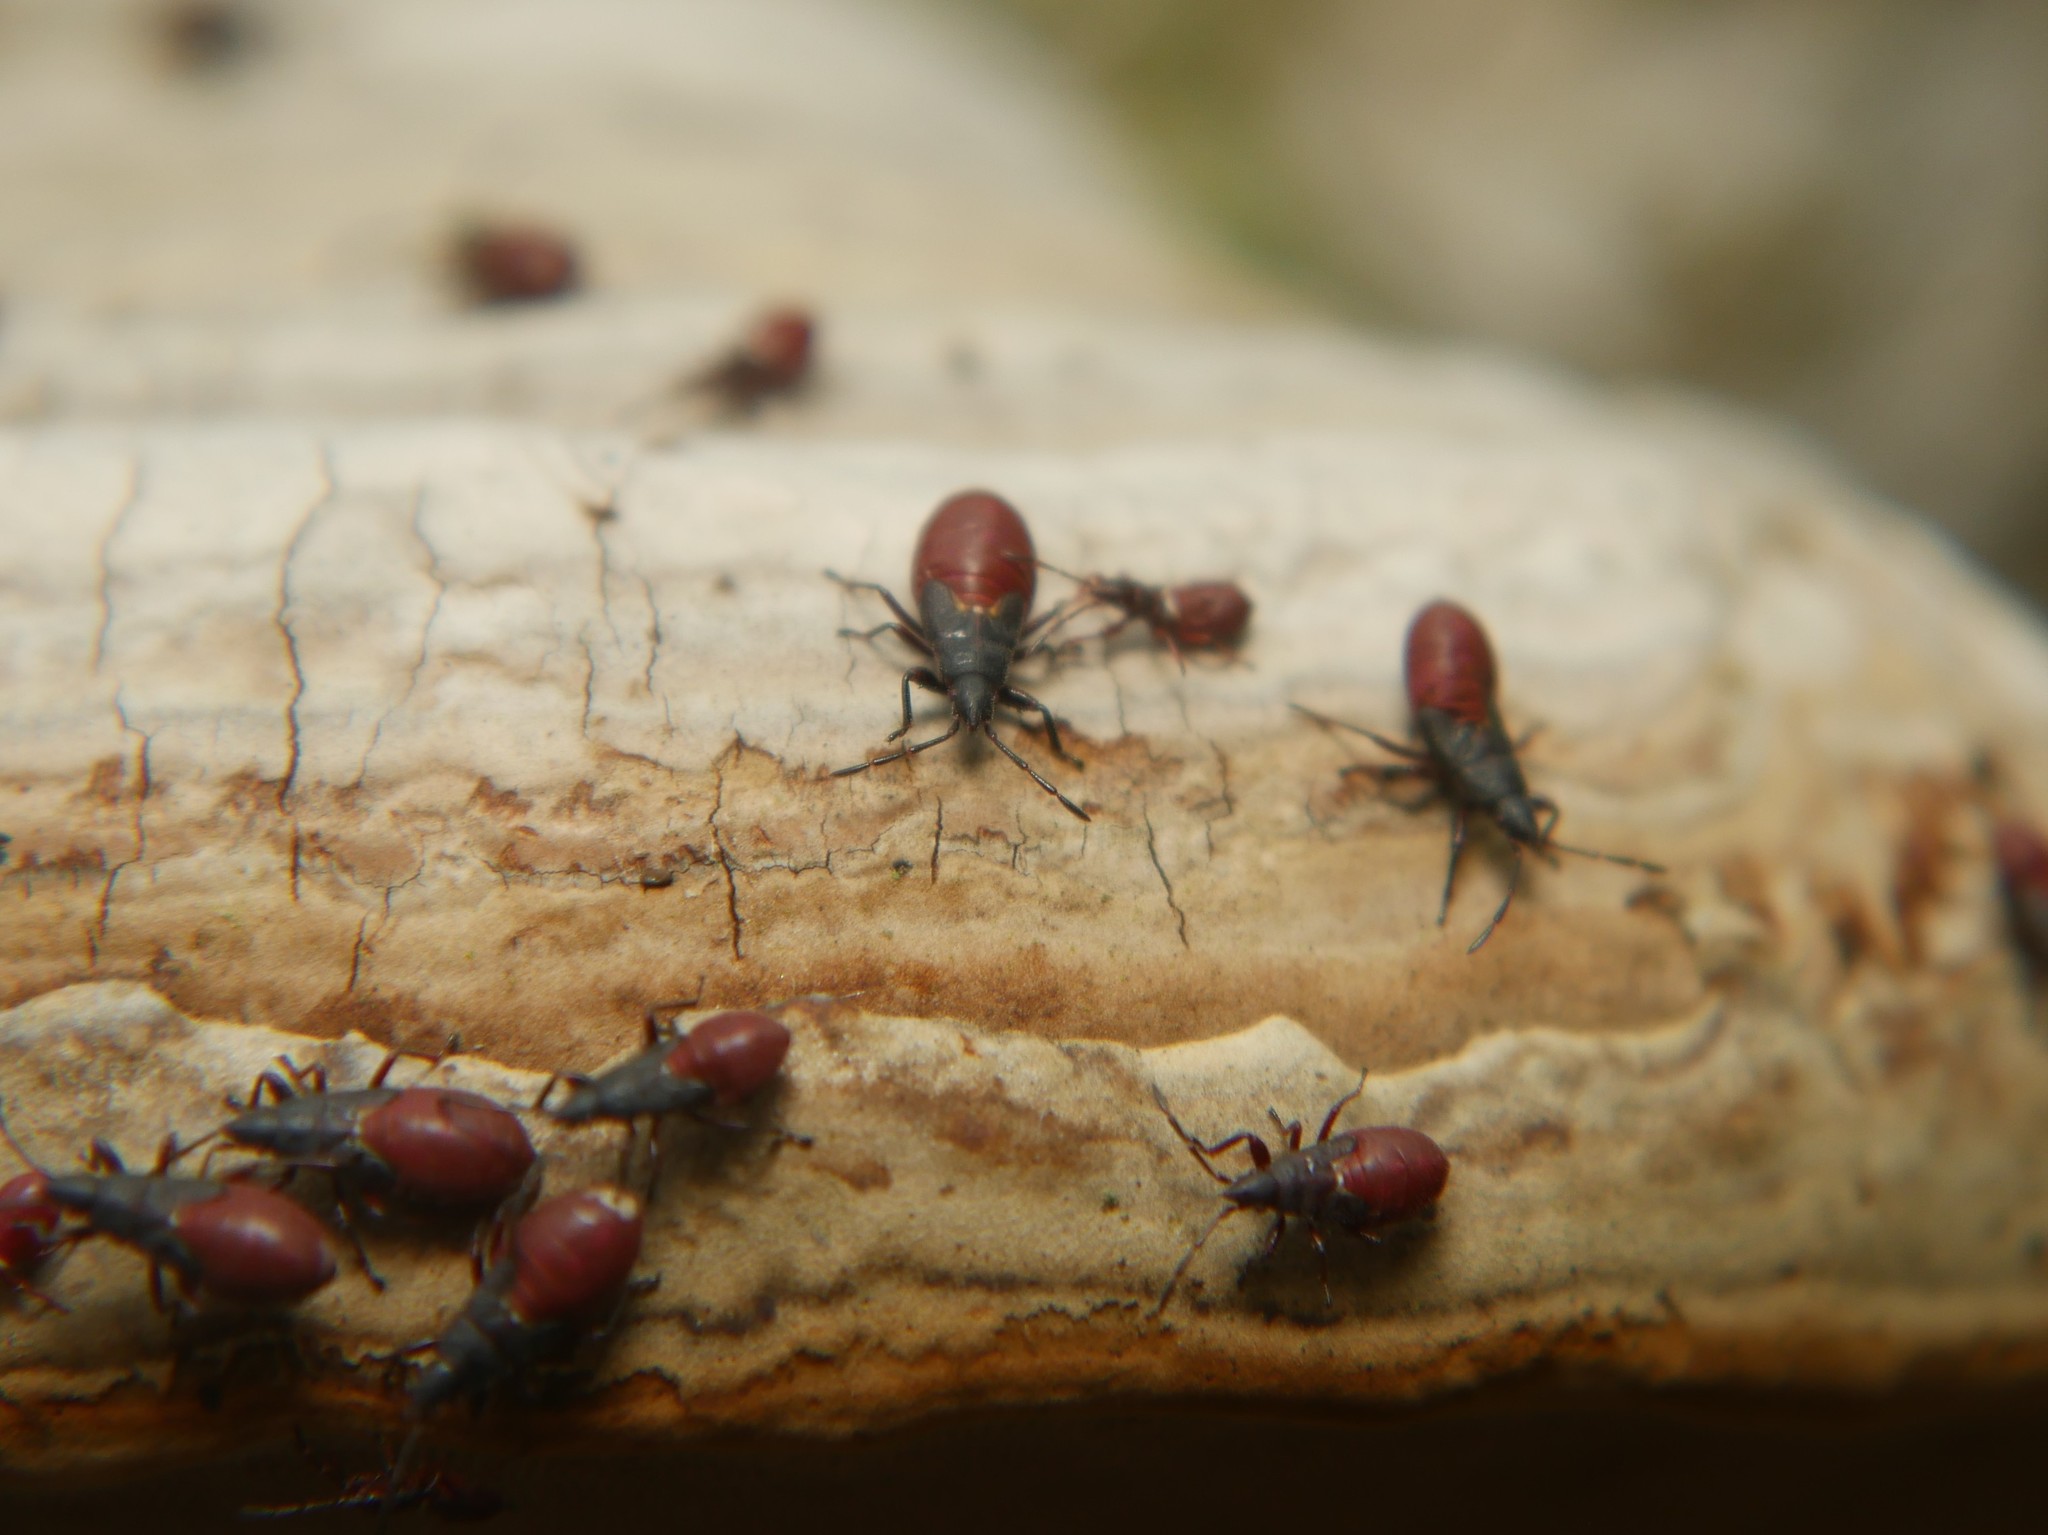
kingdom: Animalia
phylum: Arthropoda
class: Insecta
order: Hemiptera
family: Oxycarenidae
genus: Oxycarenus
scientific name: Oxycarenus lavaterae
